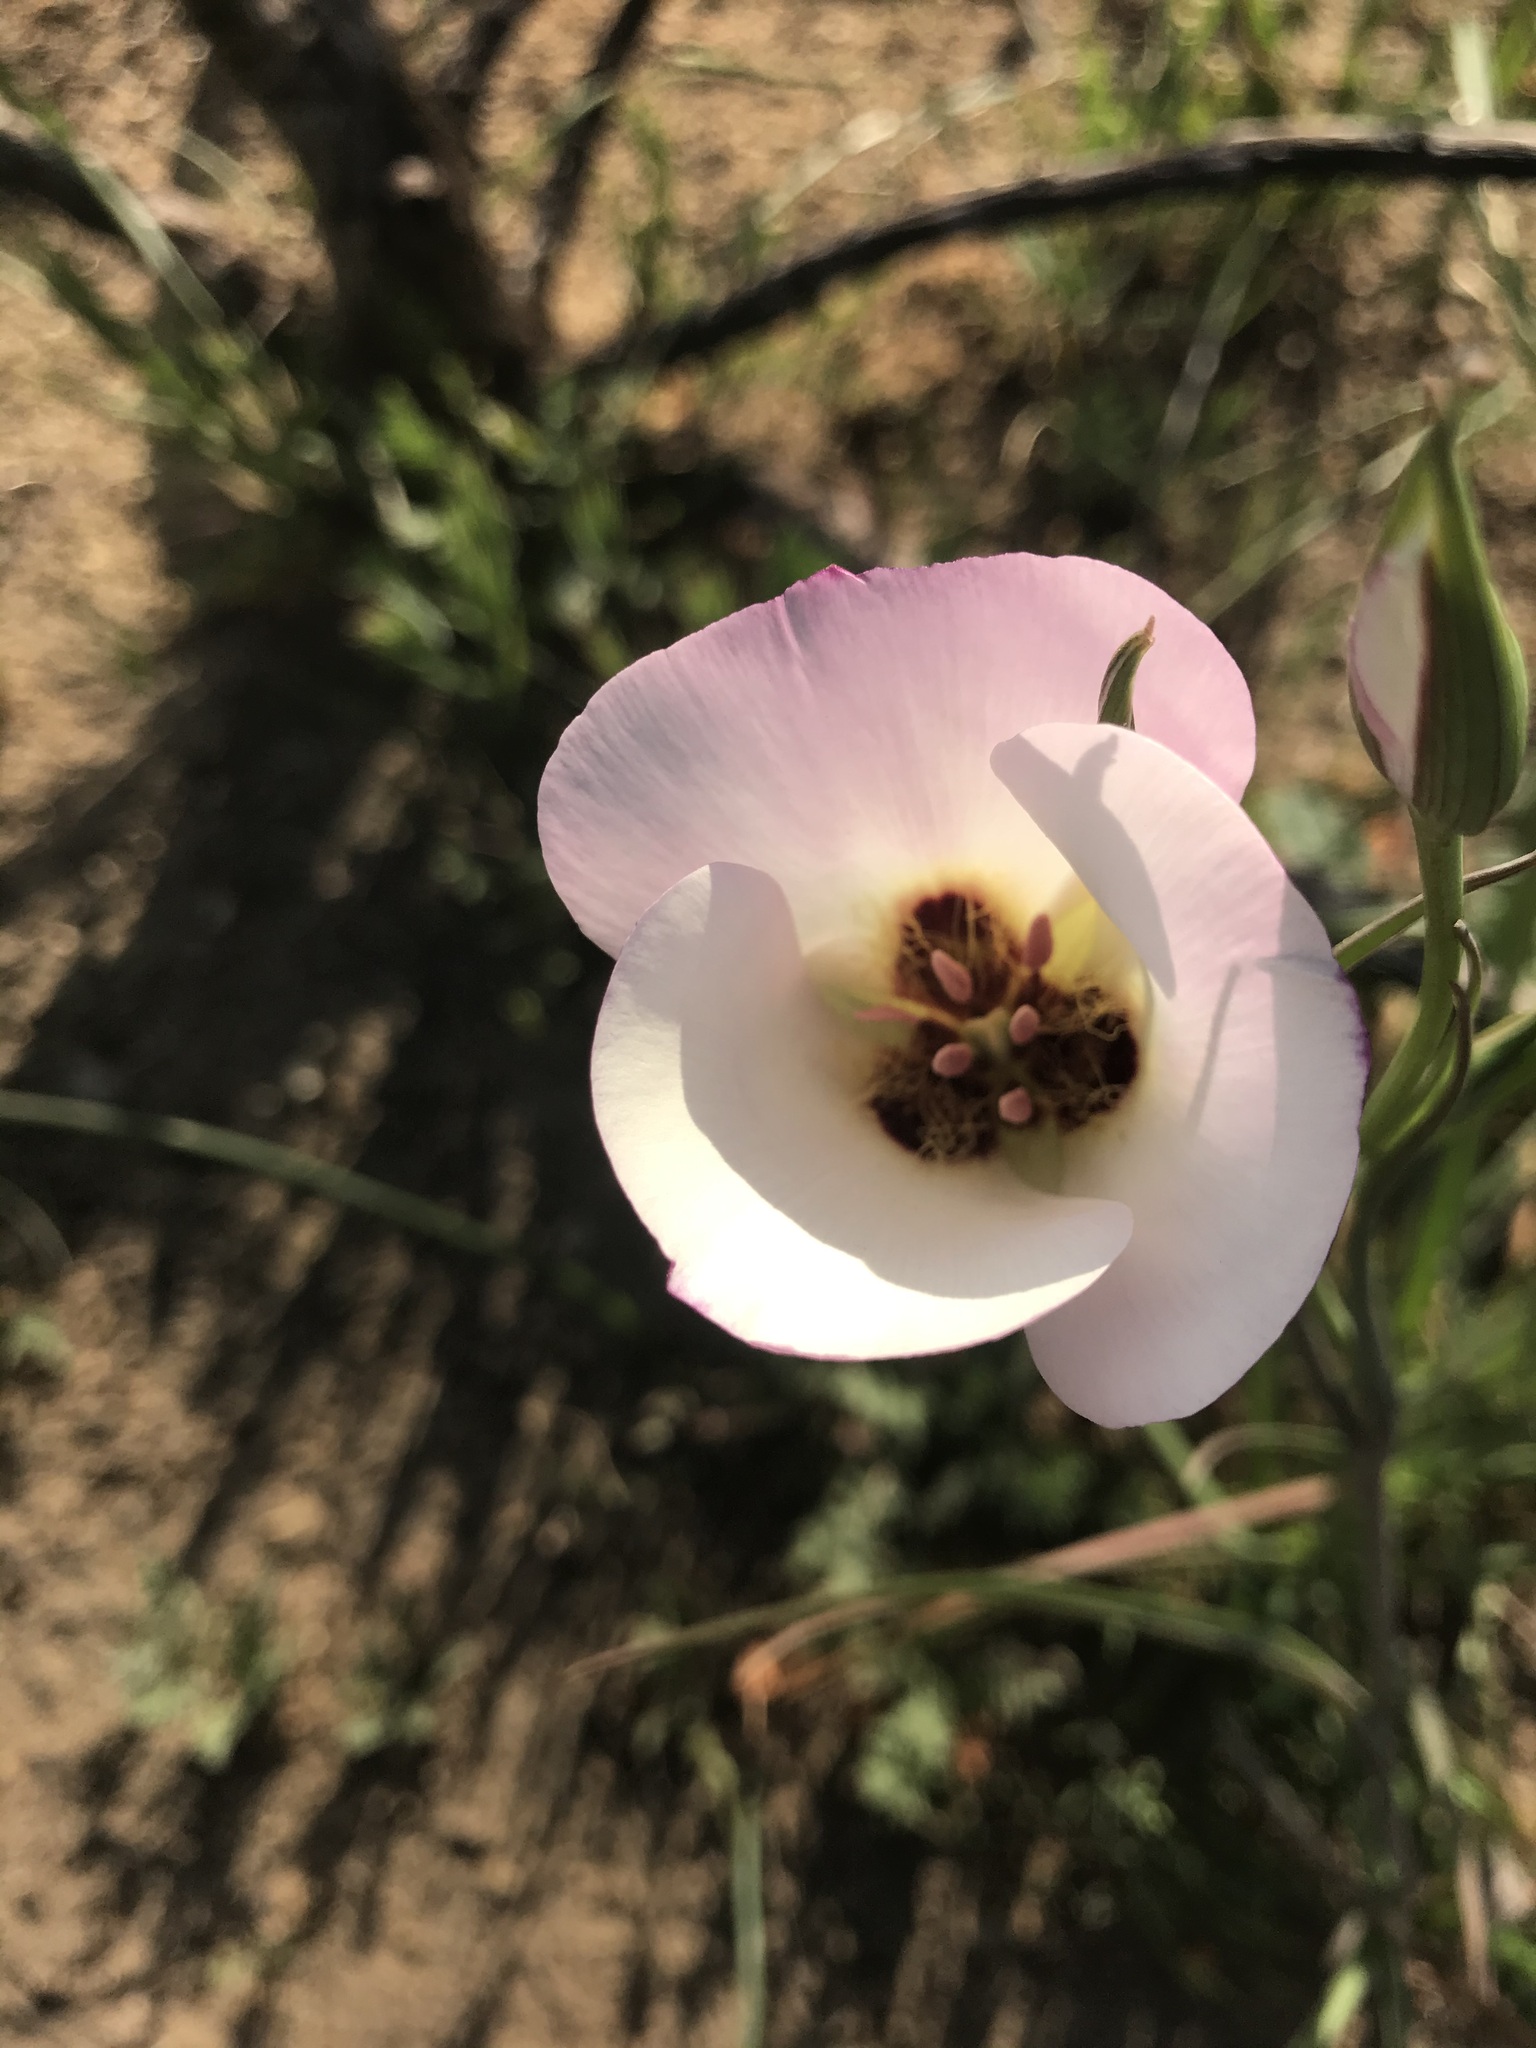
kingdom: Plantae
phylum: Tracheophyta
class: Liliopsida
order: Liliales
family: Liliaceae
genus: Calochortus
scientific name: Calochortus catalinae
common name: Catalina mariposa-lily
